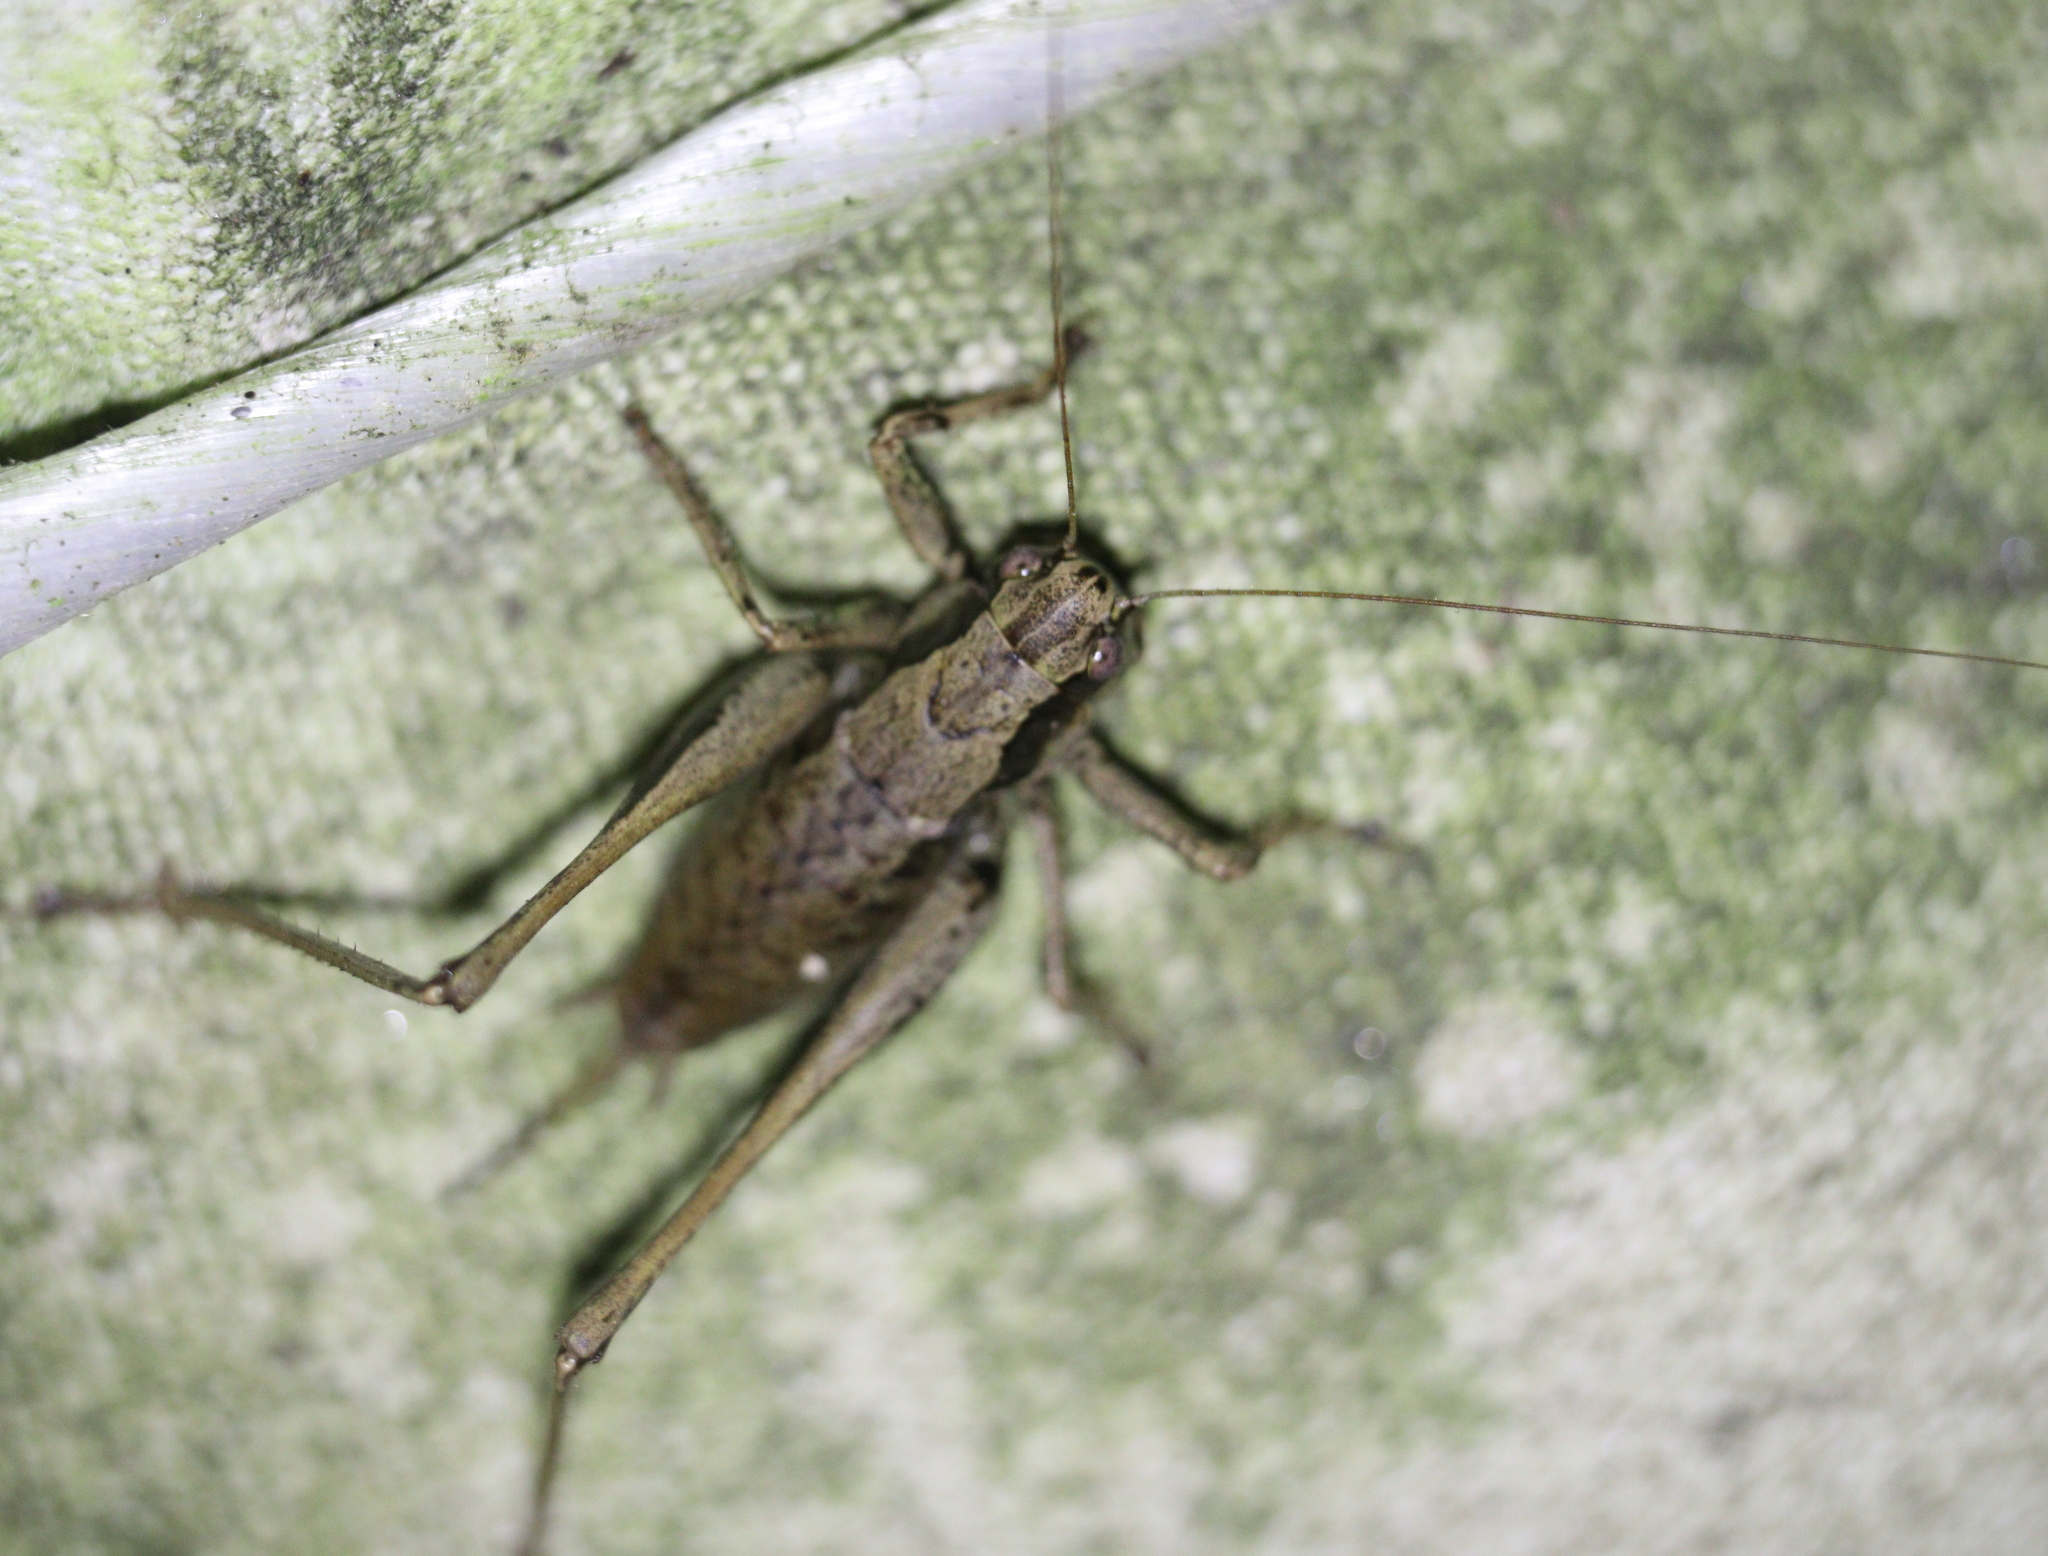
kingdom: Animalia
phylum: Arthropoda
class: Insecta
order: Orthoptera
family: Tettigoniidae
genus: Pholidoptera
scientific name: Pholidoptera griseoaptera
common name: Dark bush-cricket
